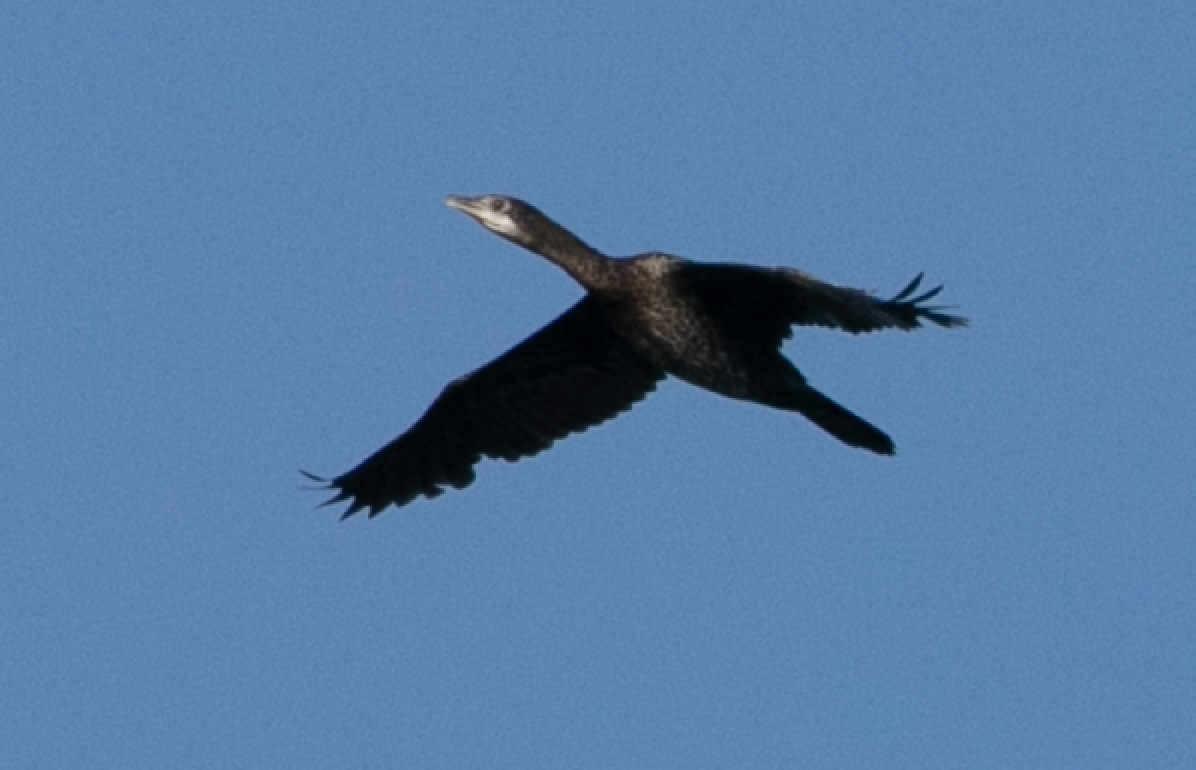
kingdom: Animalia
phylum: Chordata
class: Aves
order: Suliformes
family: Phalacrocoracidae
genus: Microcarbo
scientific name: Microcarbo pygmaeus
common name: Pygmy cormorant
